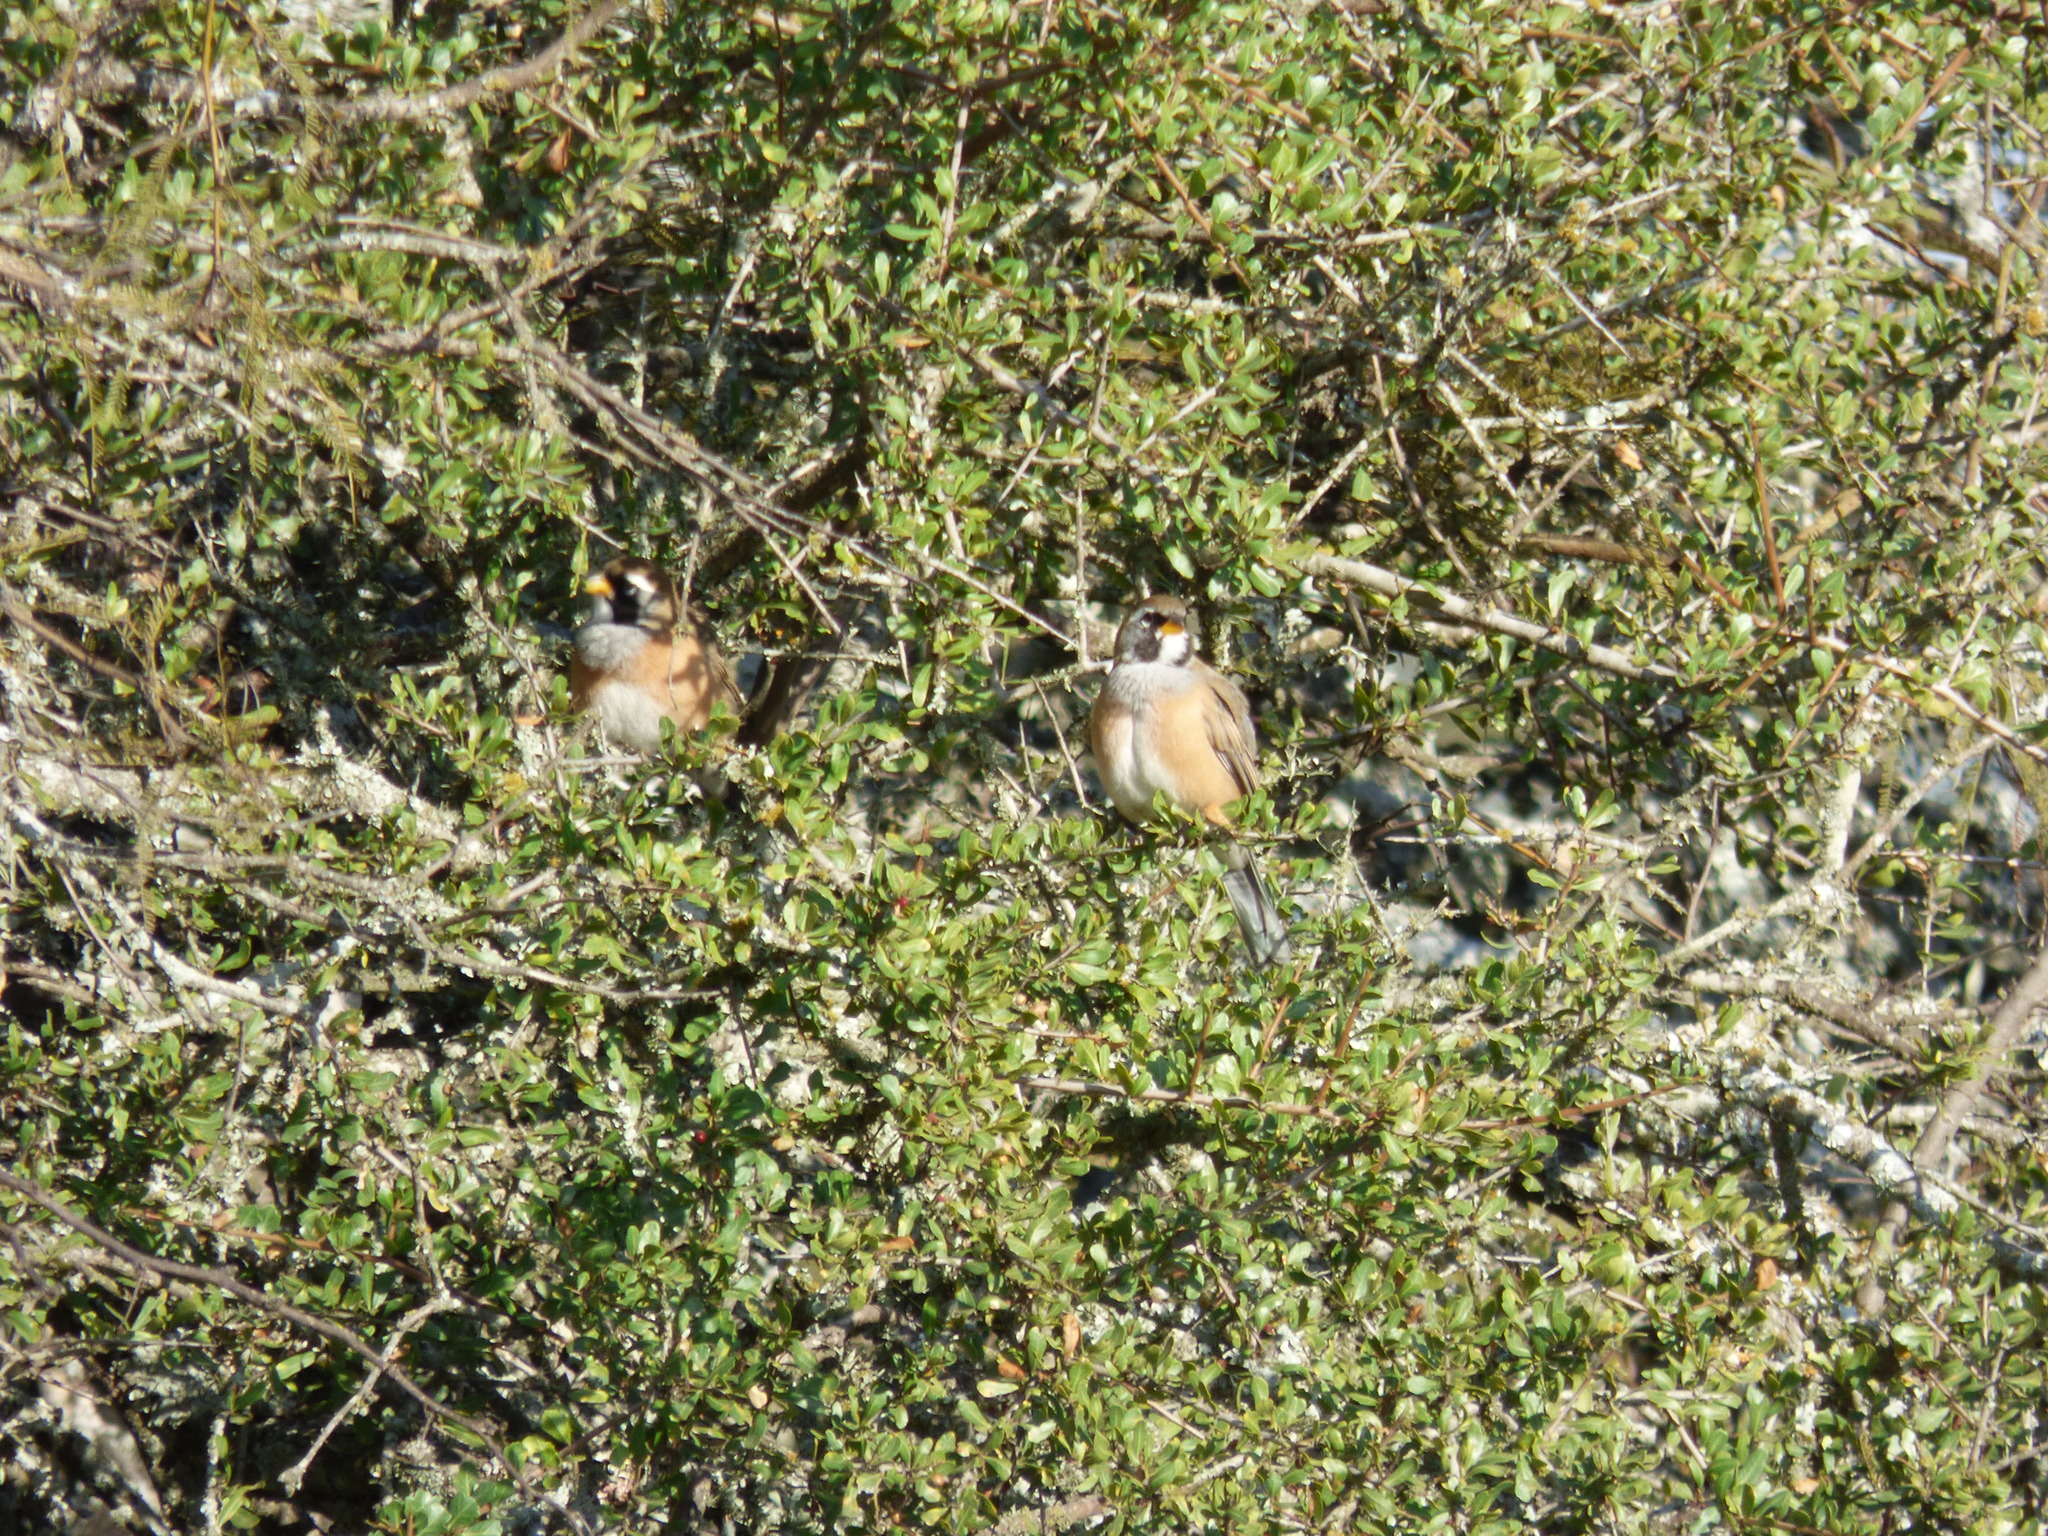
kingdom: Animalia
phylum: Chordata
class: Aves
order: Passeriformes
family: Thraupidae
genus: Saltatricula
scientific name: Saltatricula multicolor
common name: Many-colored chaco finch
